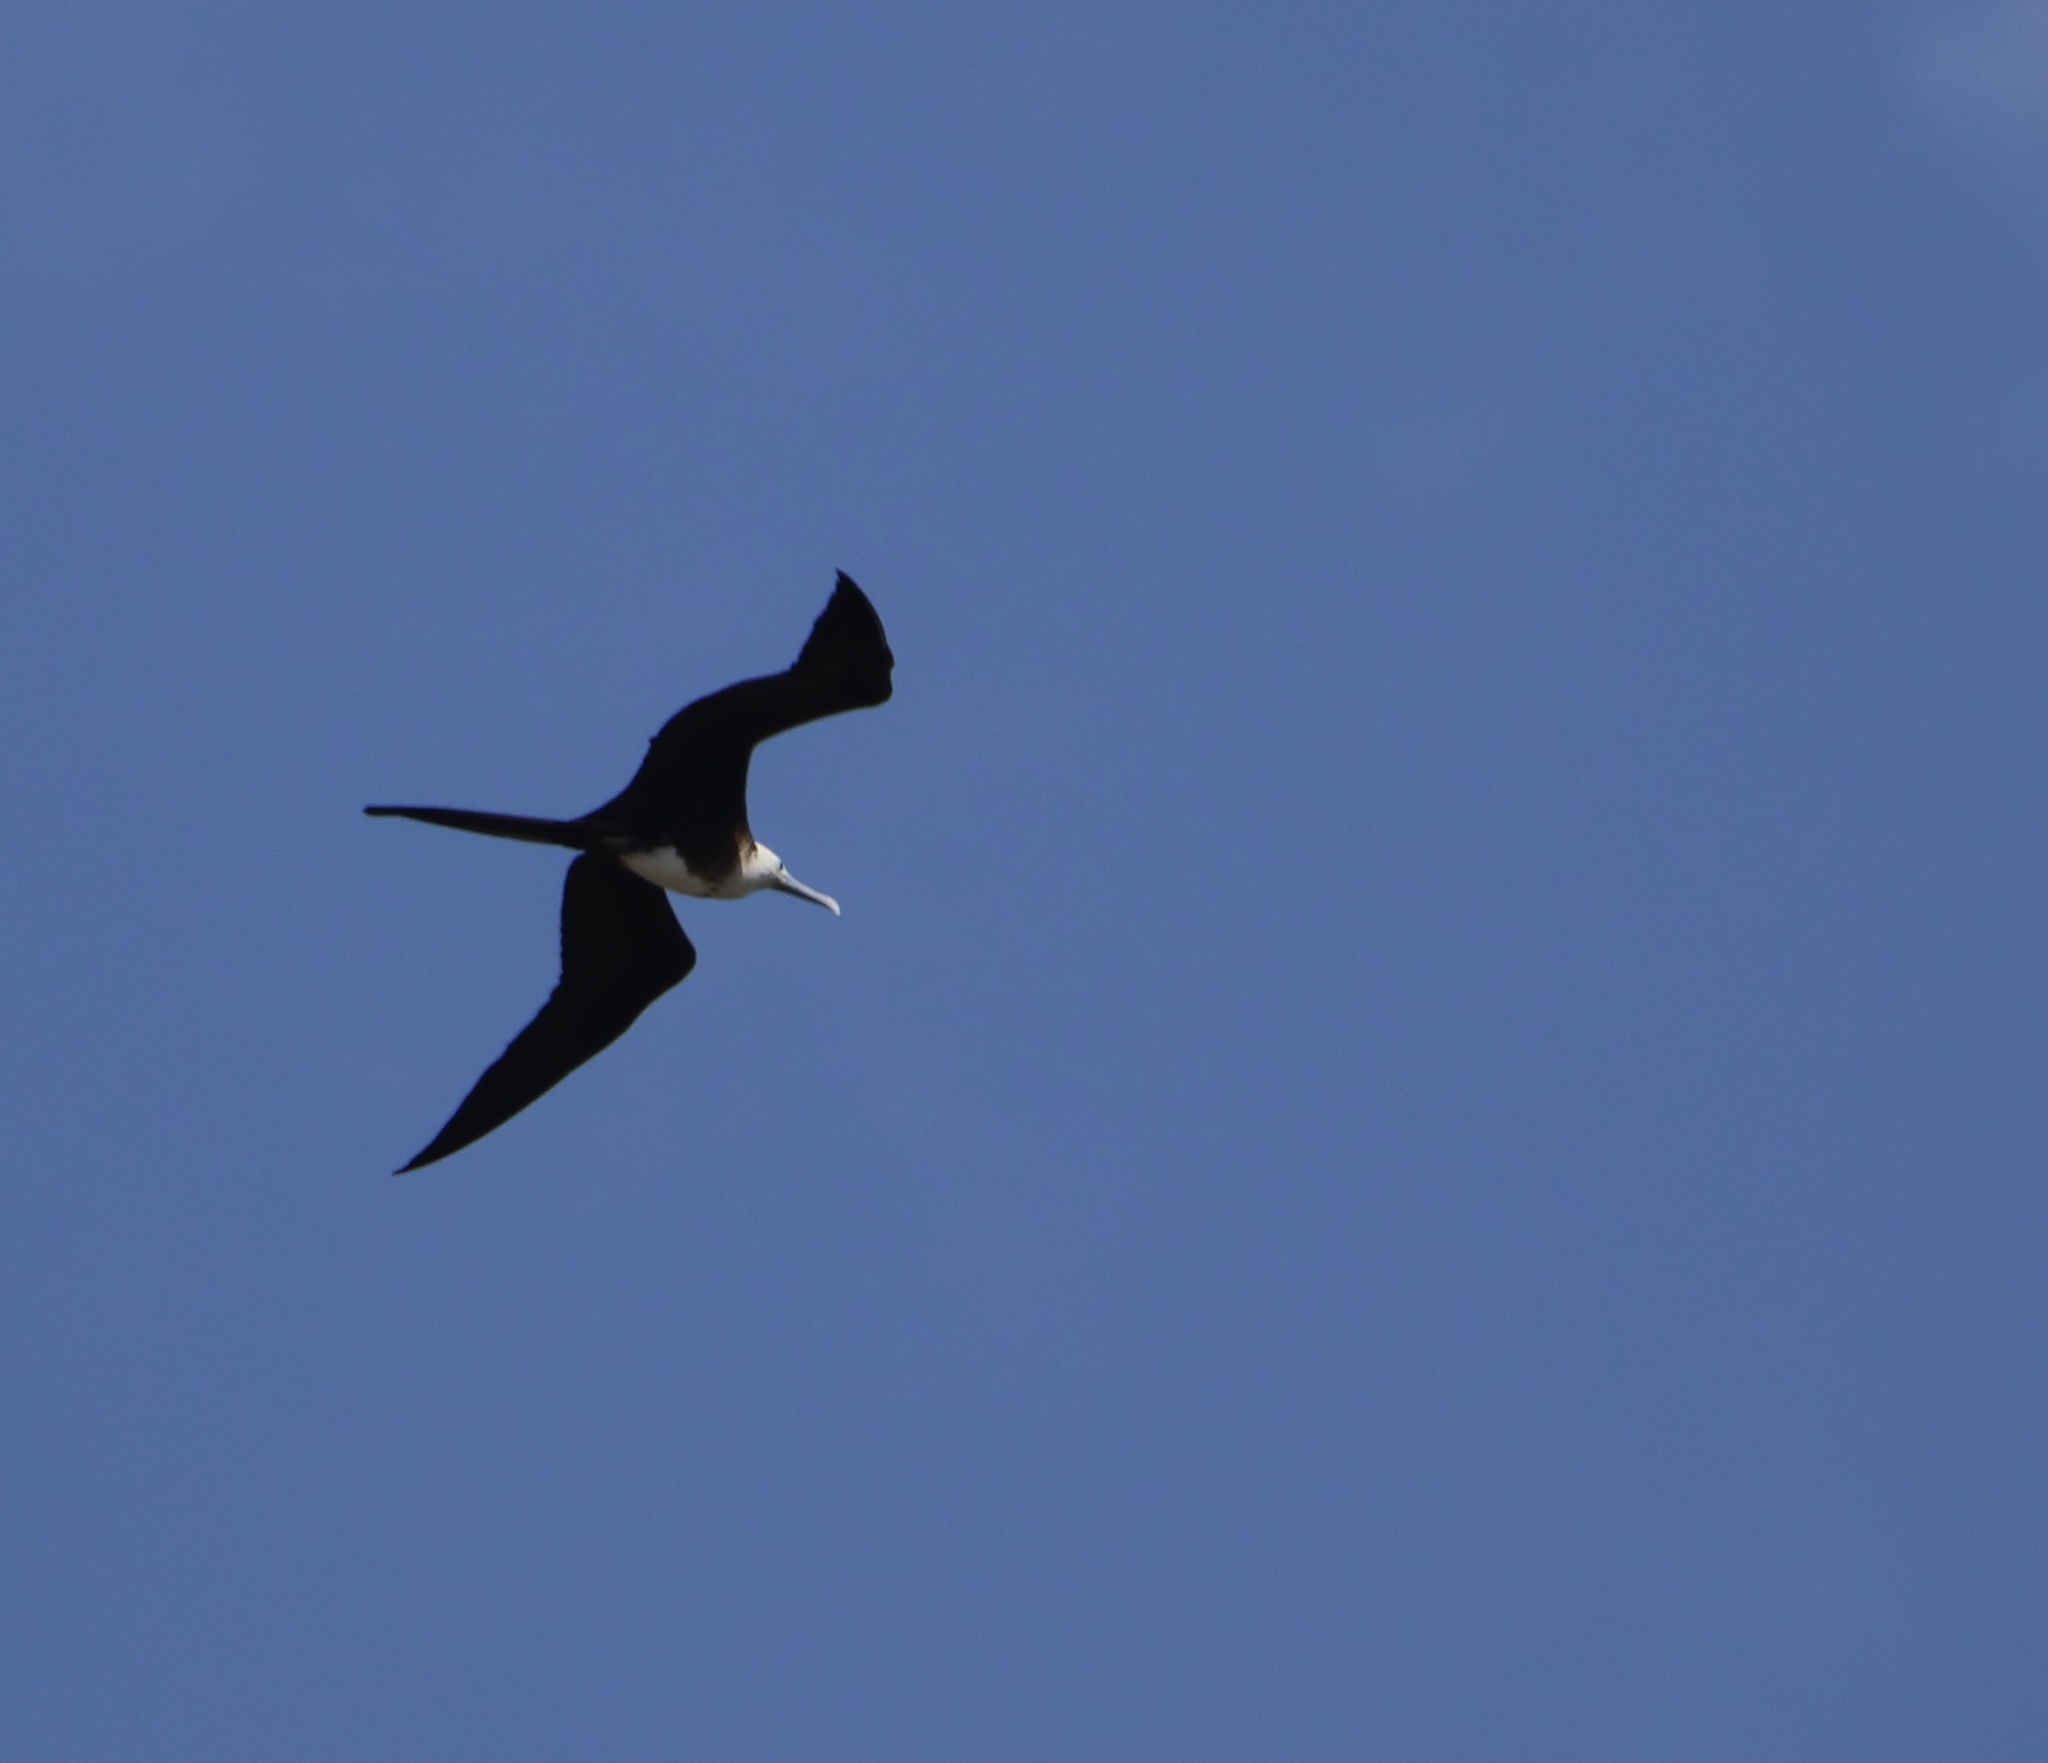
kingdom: Animalia
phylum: Chordata
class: Aves
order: Suliformes
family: Fregatidae
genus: Fregata
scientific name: Fregata magnificens
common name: Magnificent frigatebird
